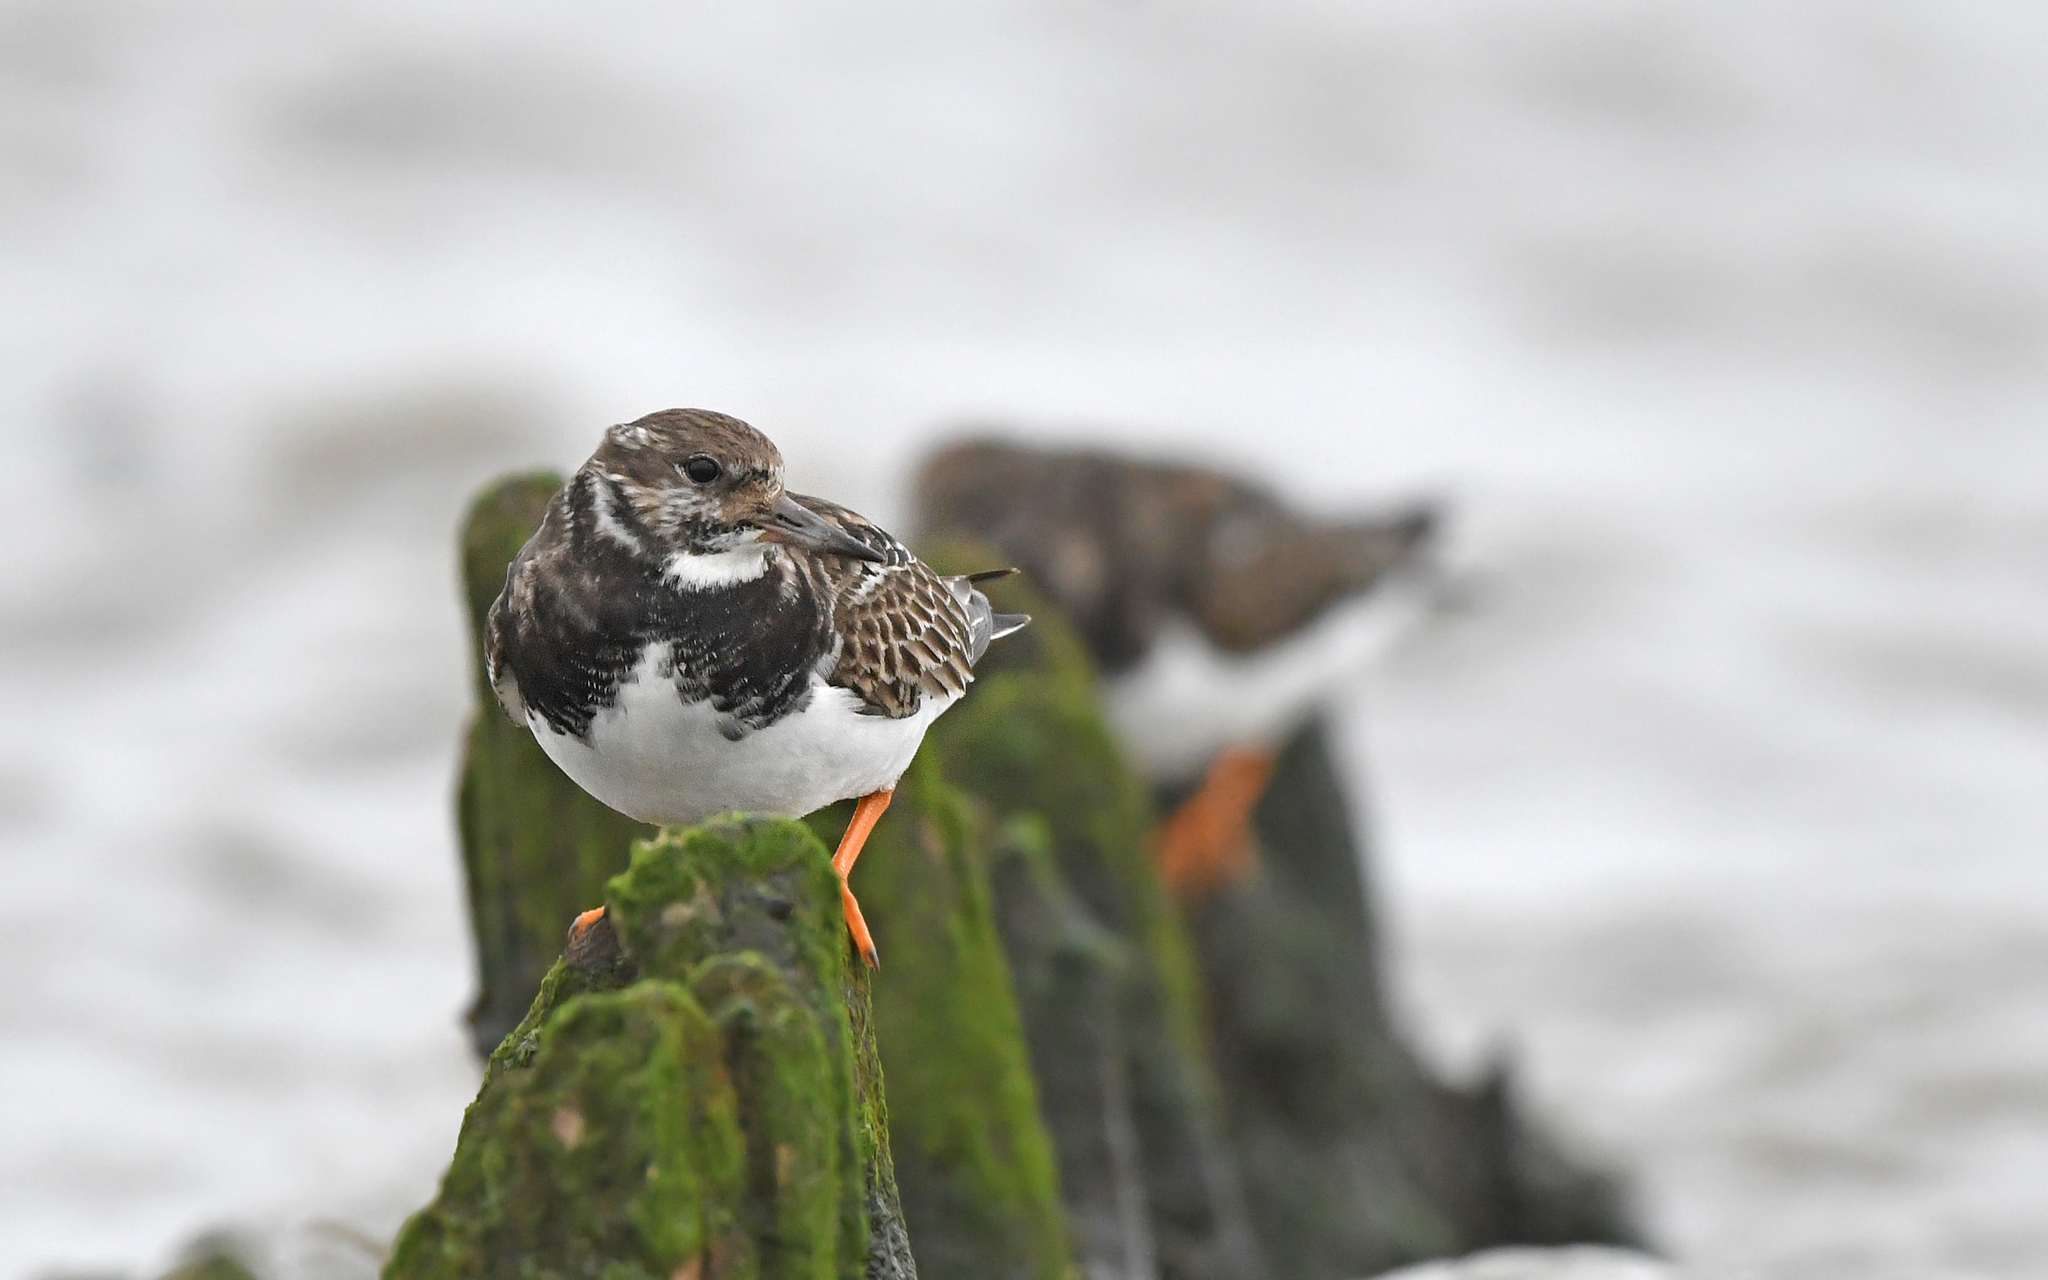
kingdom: Animalia
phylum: Chordata
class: Aves
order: Charadriiformes
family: Scolopacidae
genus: Arenaria
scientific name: Arenaria interpres
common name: Ruddy turnstone
